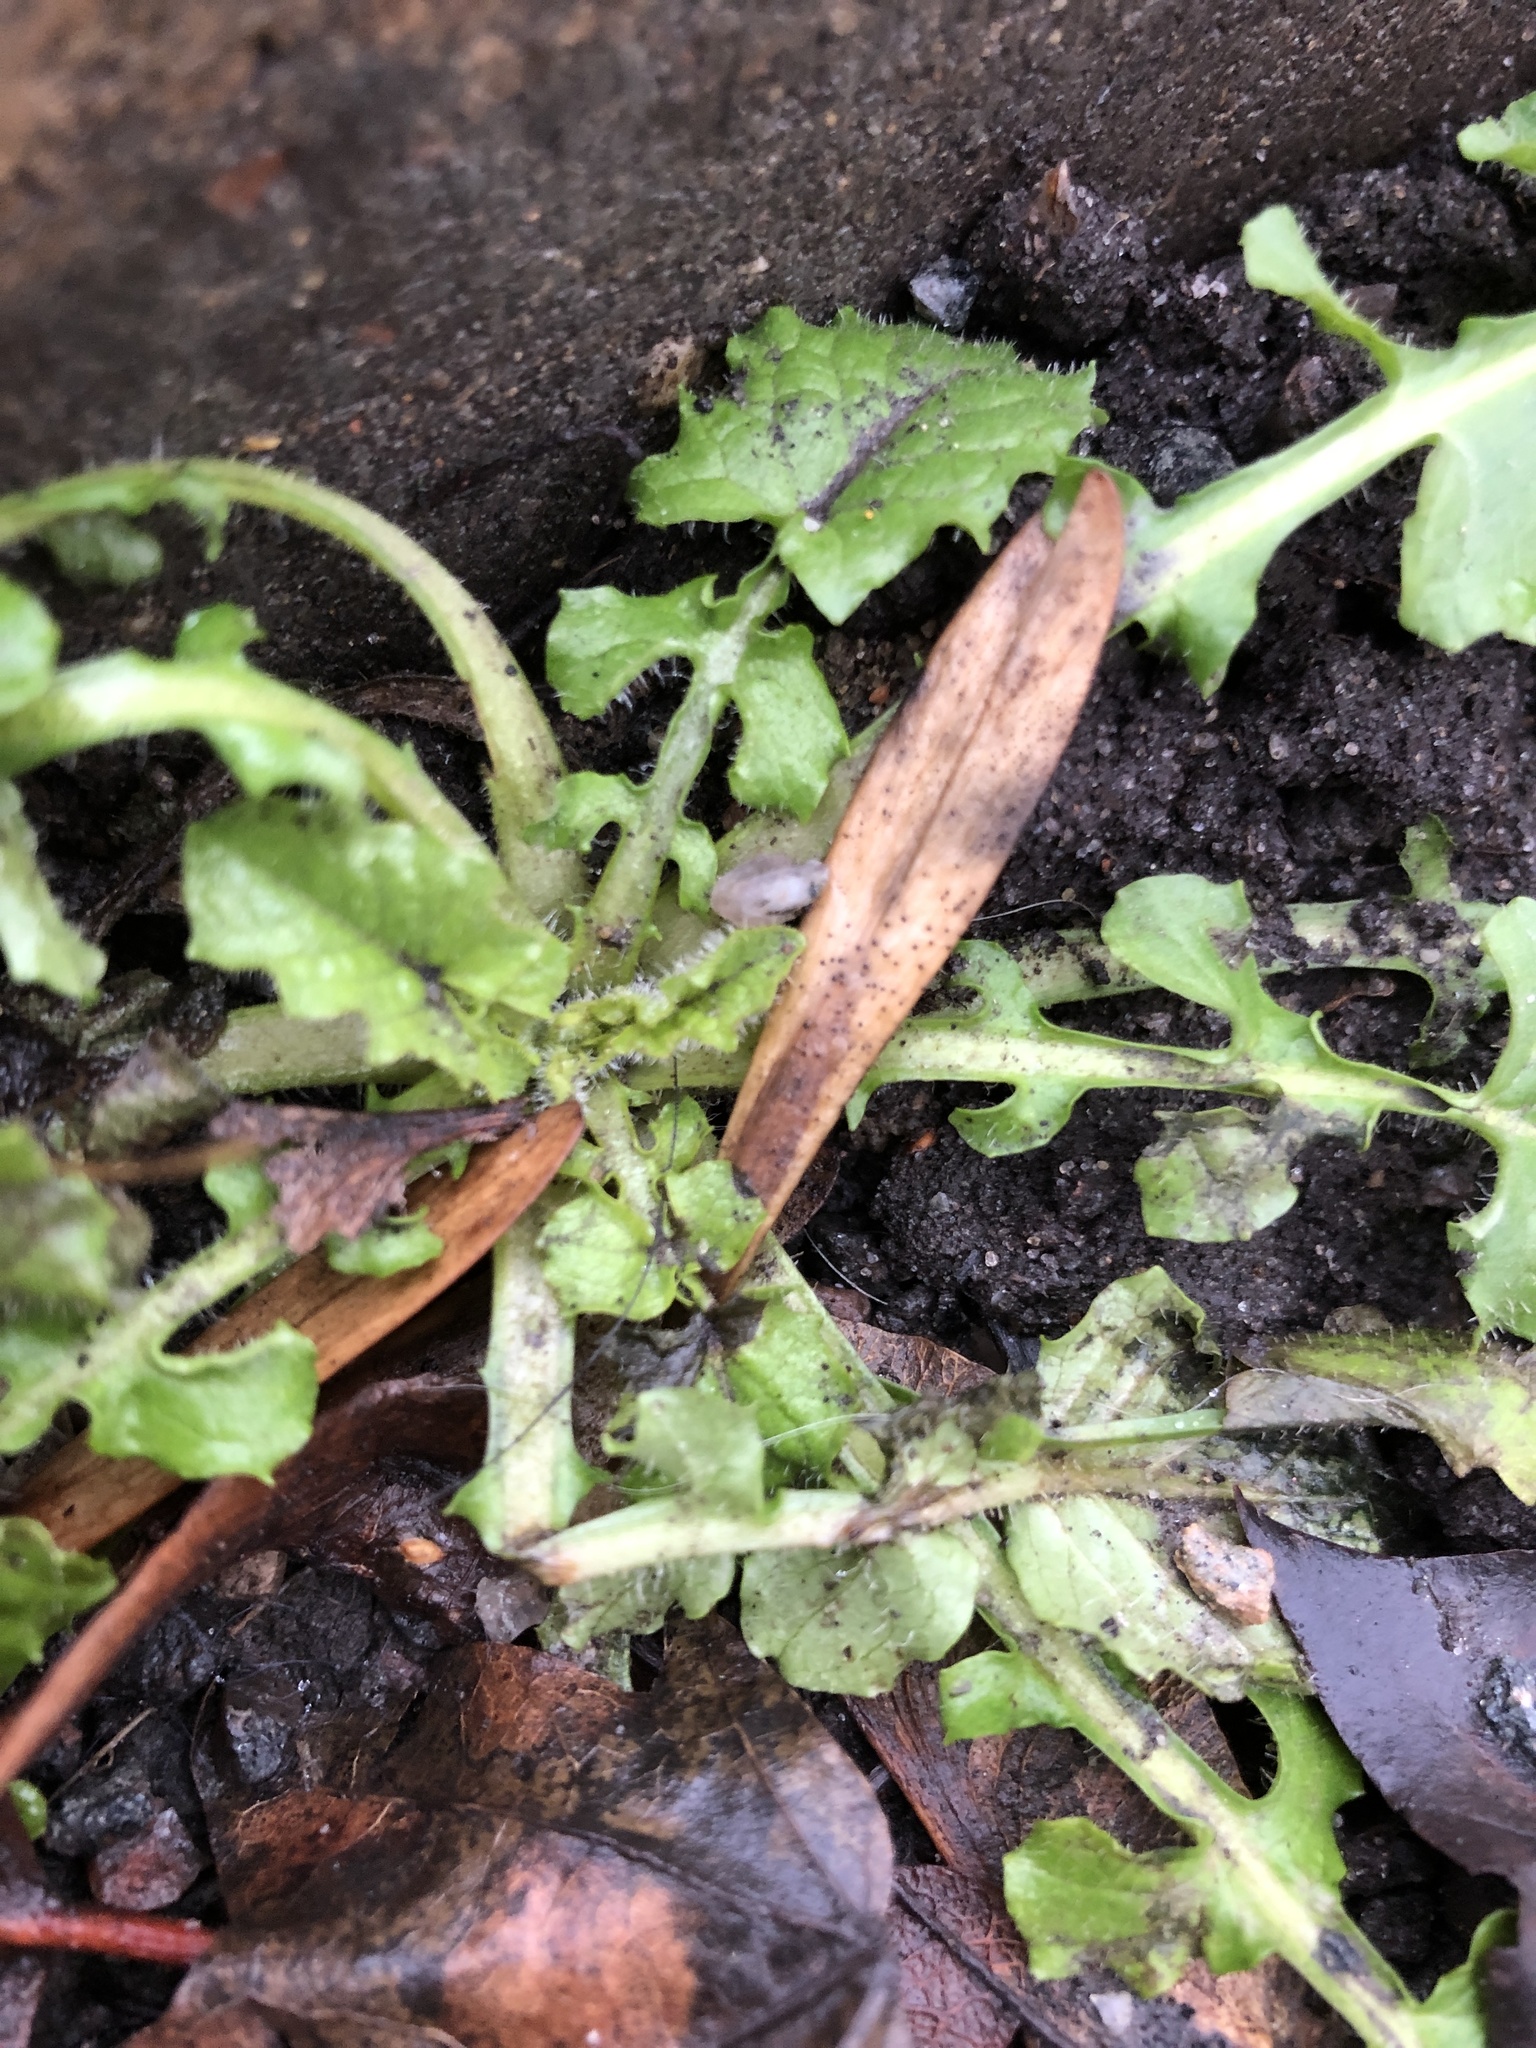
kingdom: Plantae
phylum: Tracheophyta
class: Magnoliopsida
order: Asterales
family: Asteraceae
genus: Lapsana
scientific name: Lapsana communis
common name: Nipplewort
